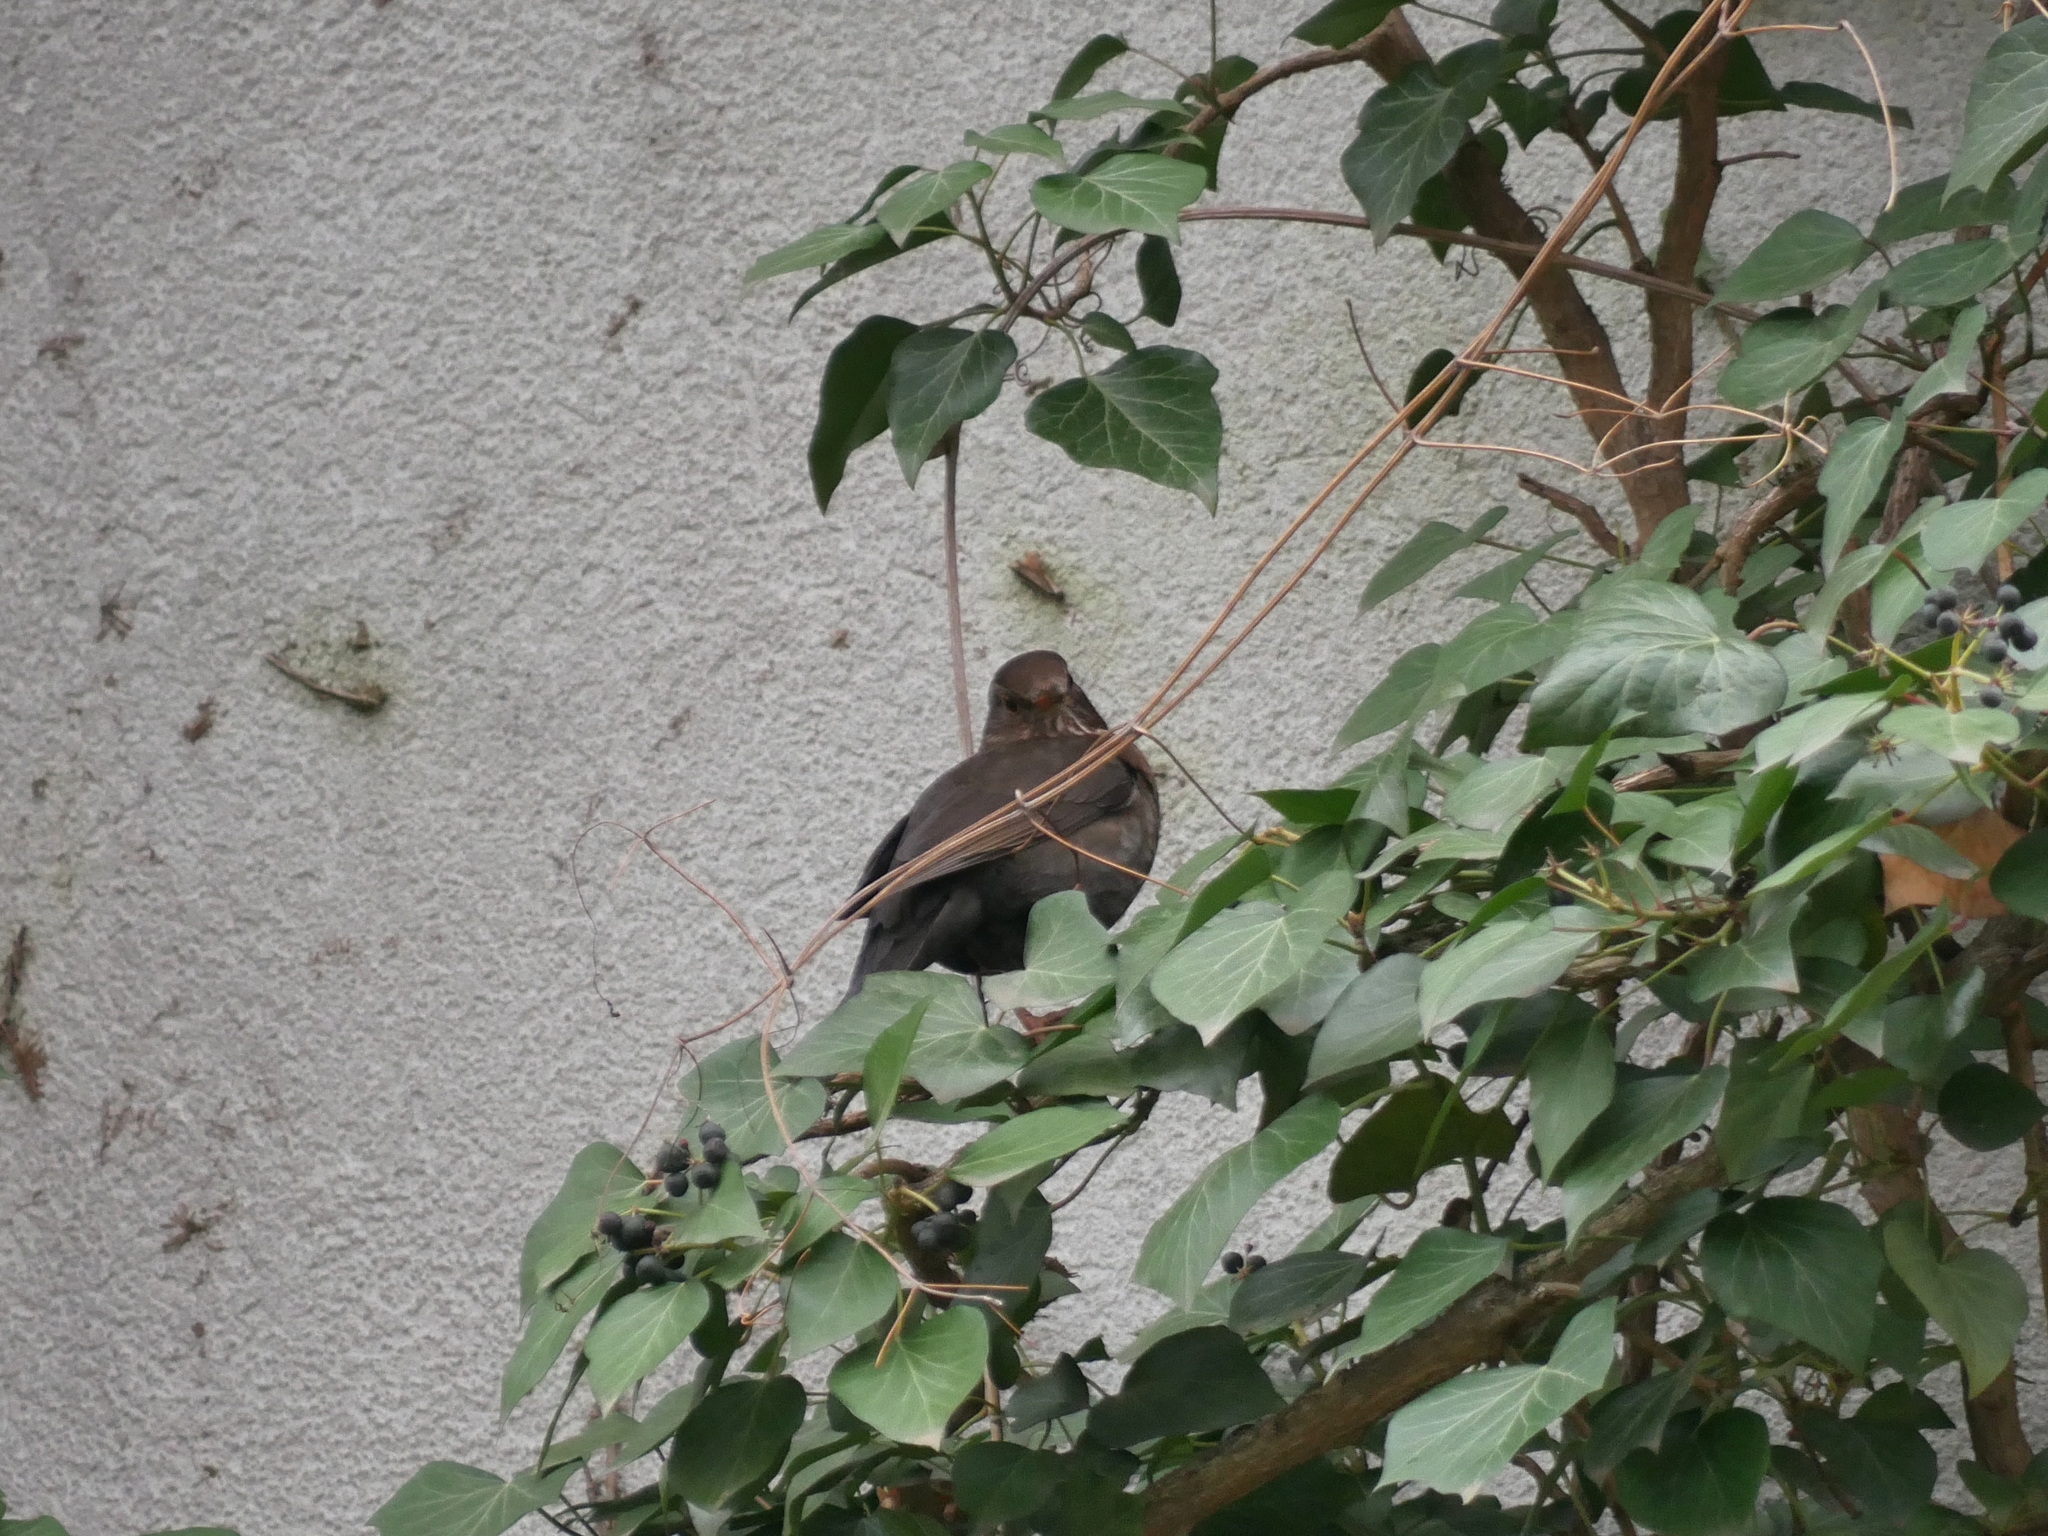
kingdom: Animalia
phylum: Chordata
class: Aves
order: Passeriformes
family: Turdidae
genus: Turdus
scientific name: Turdus merula
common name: Common blackbird
